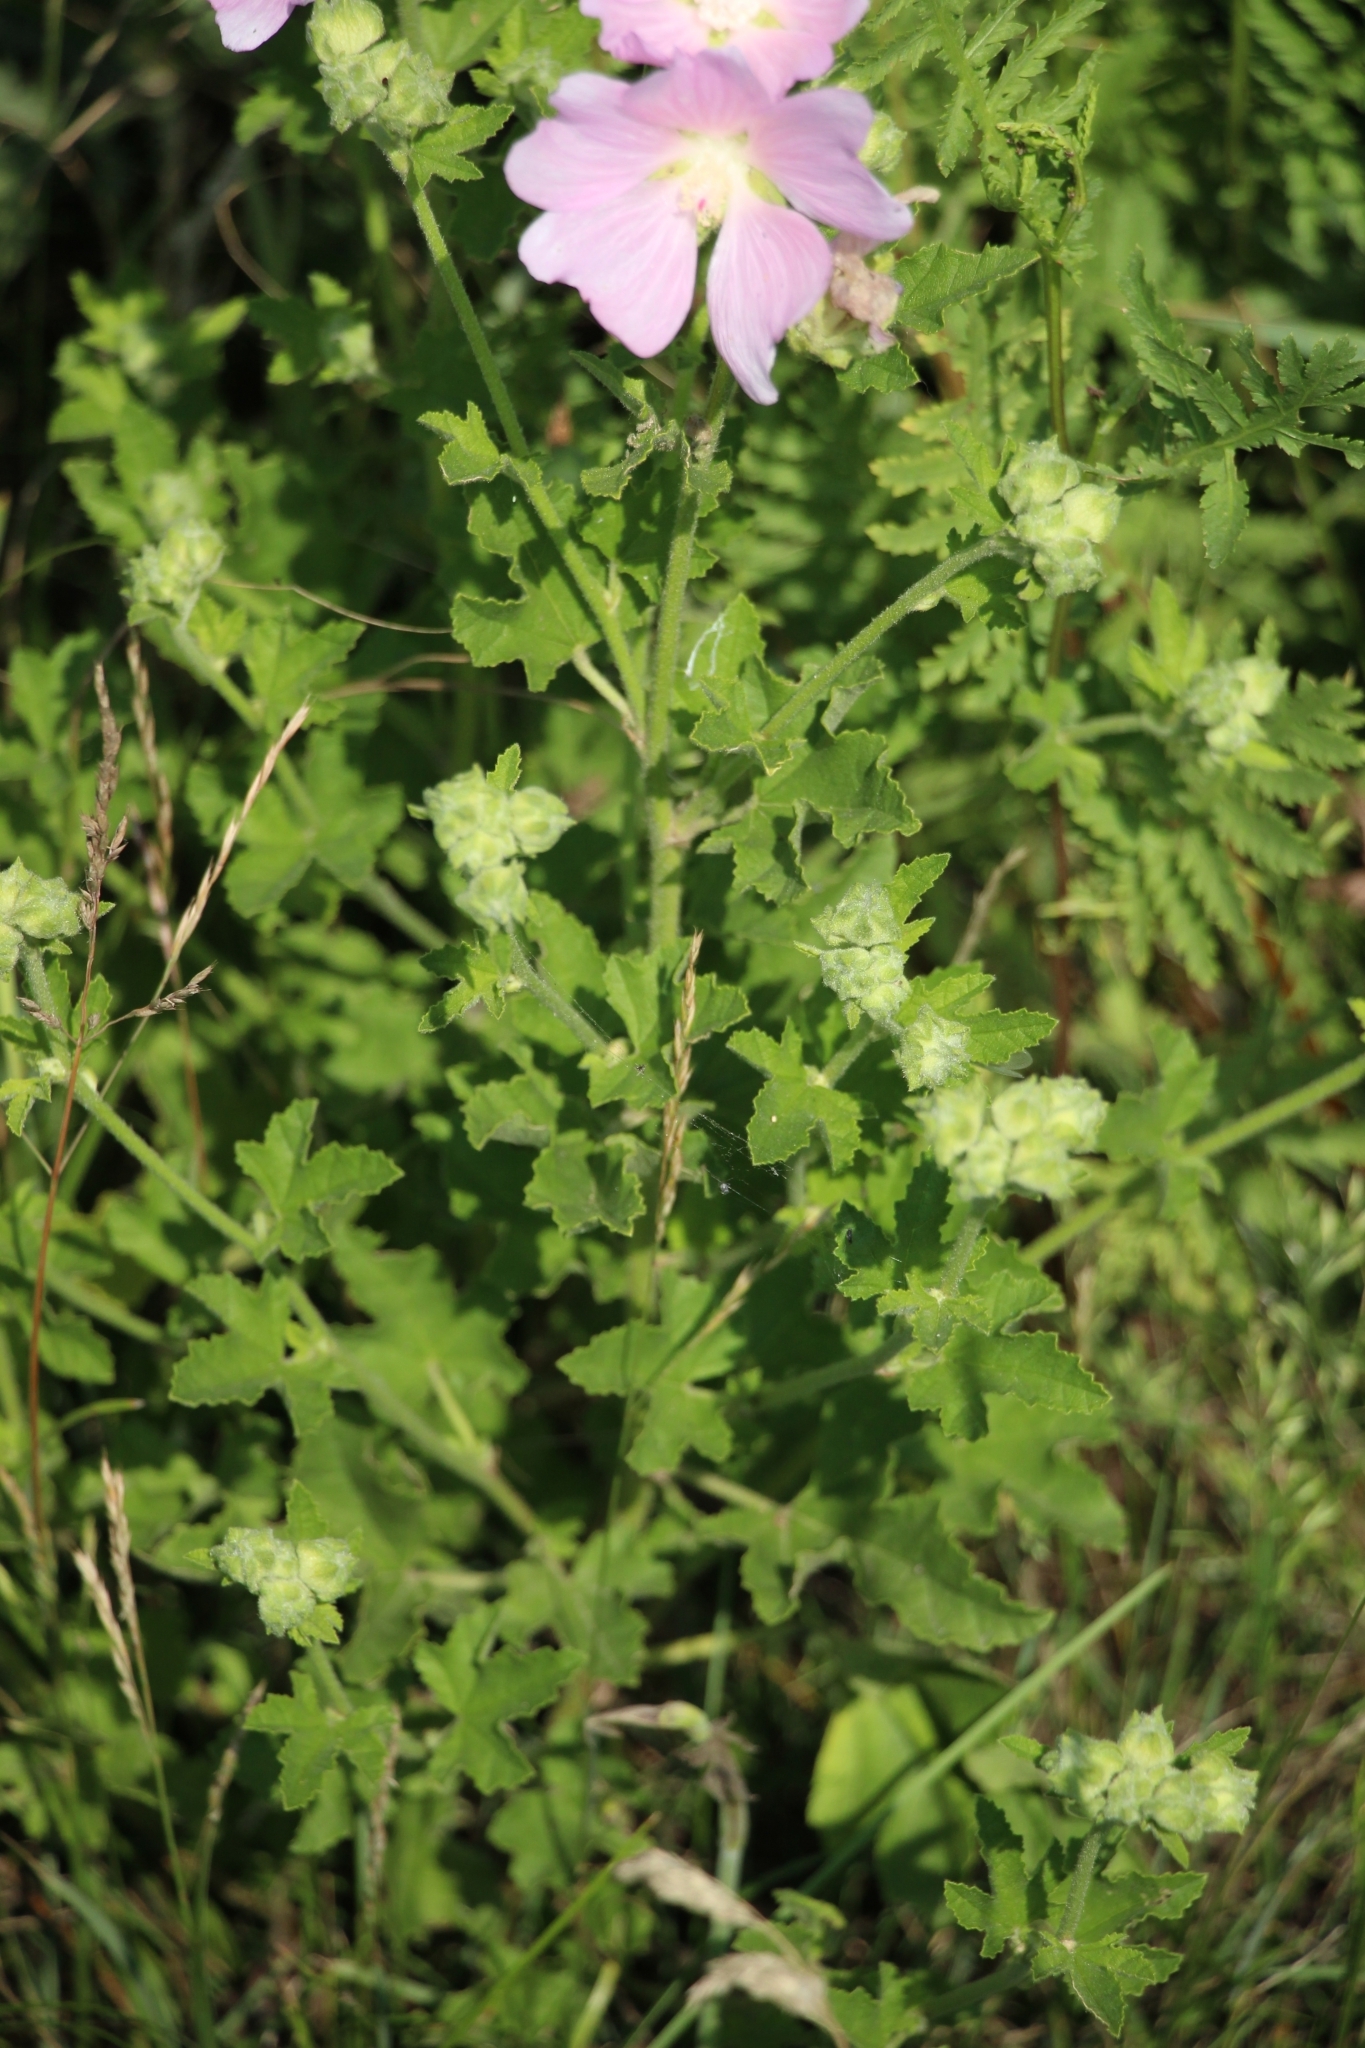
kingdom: Plantae
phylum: Tracheophyta
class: Magnoliopsida
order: Malvales
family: Malvaceae
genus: Malva
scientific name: Malva thuringiaca
